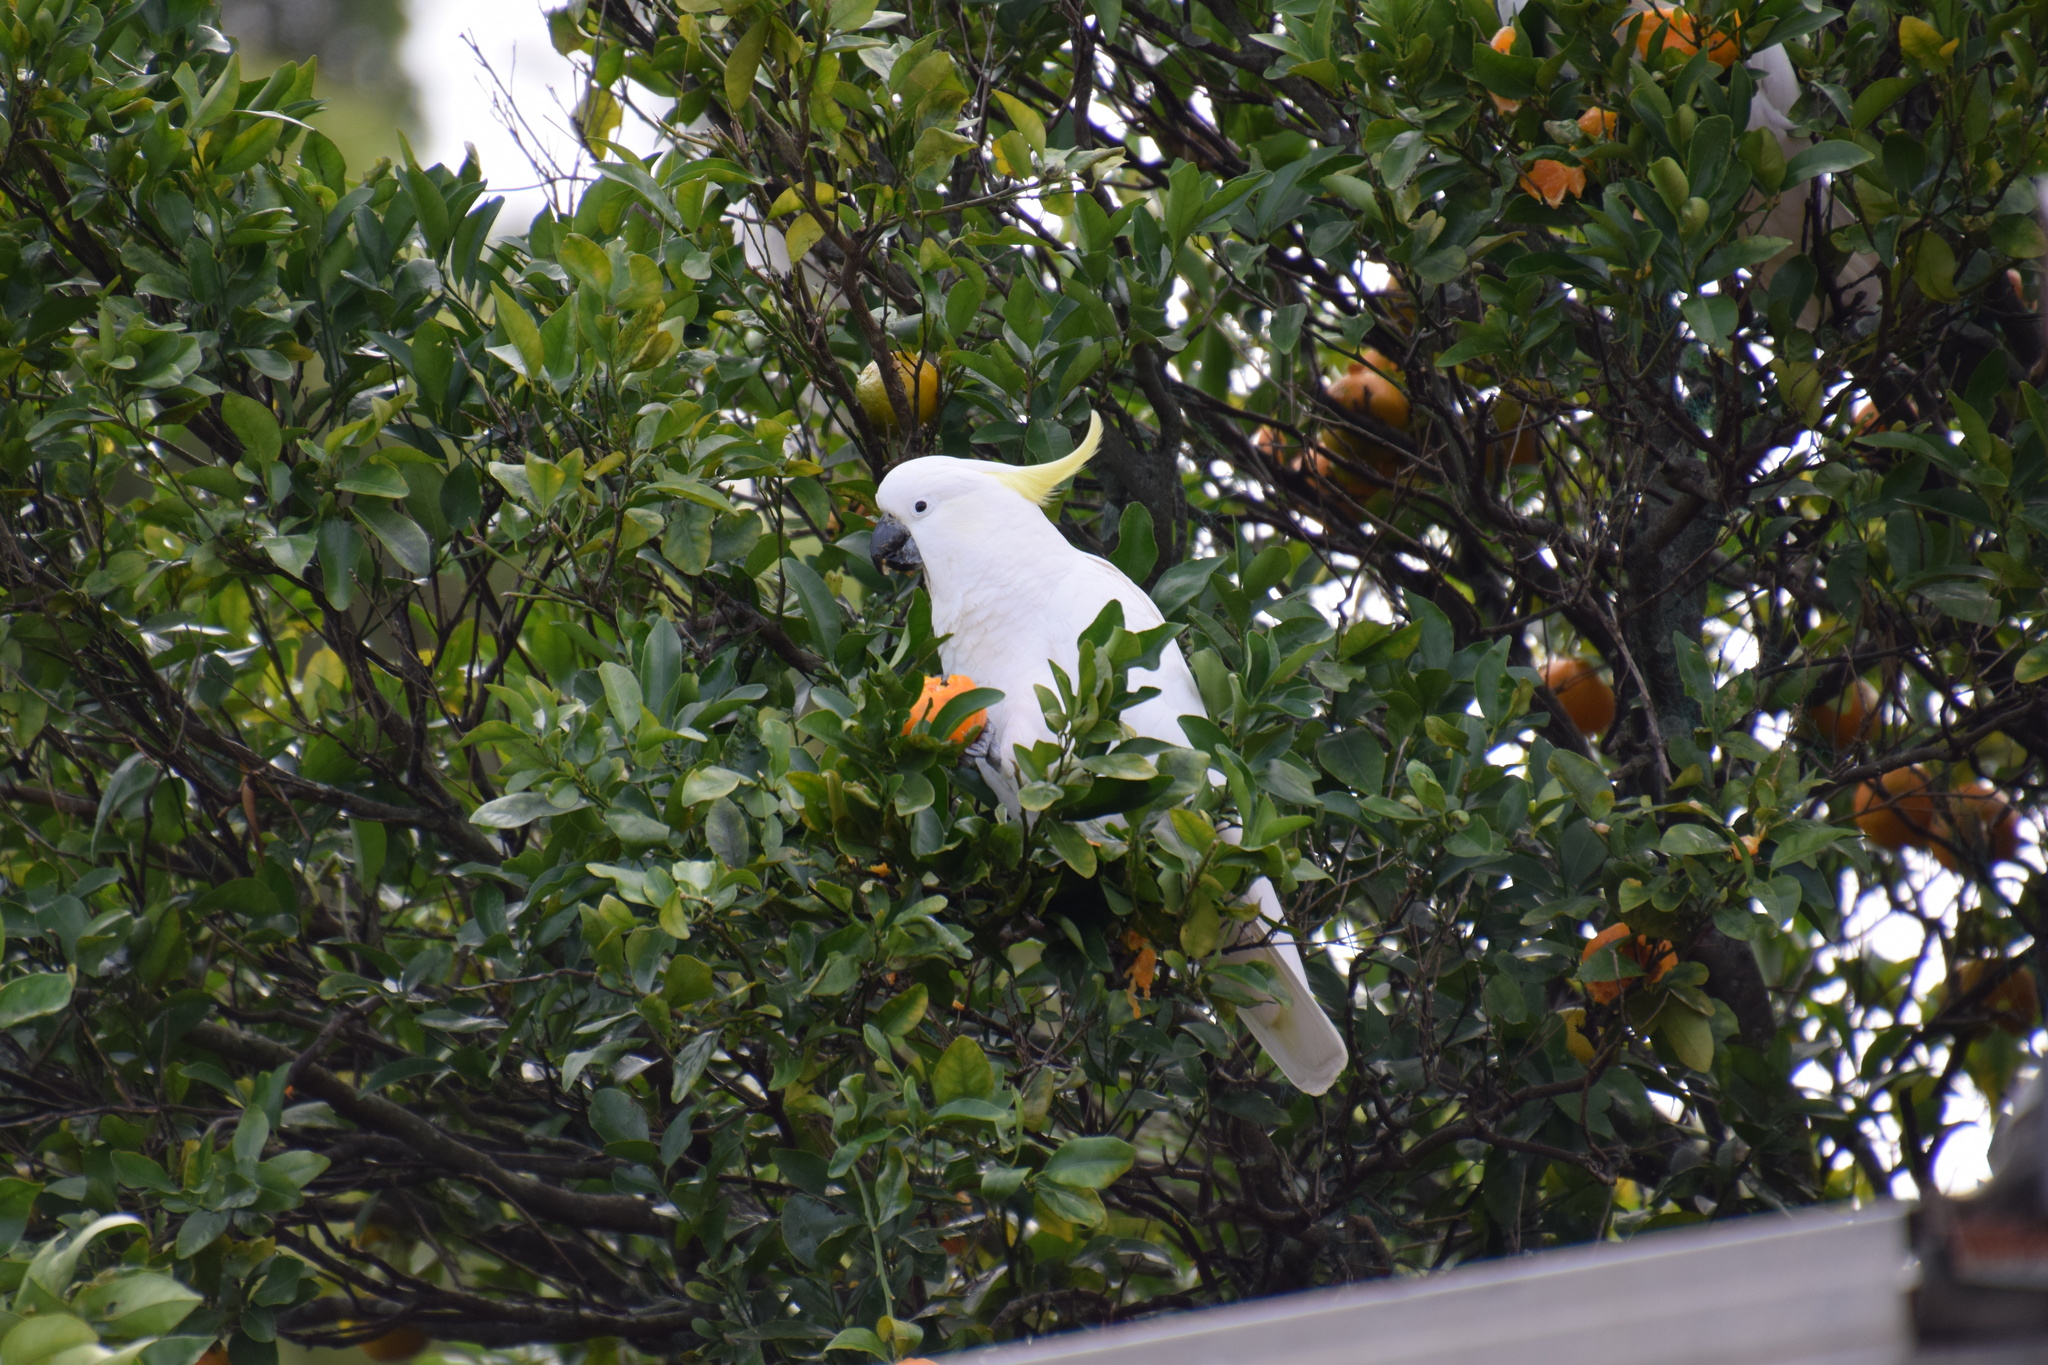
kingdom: Animalia
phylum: Chordata
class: Aves
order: Psittaciformes
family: Psittacidae
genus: Cacatua
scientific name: Cacatua galerita
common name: Sulphur-crested cockatoo
